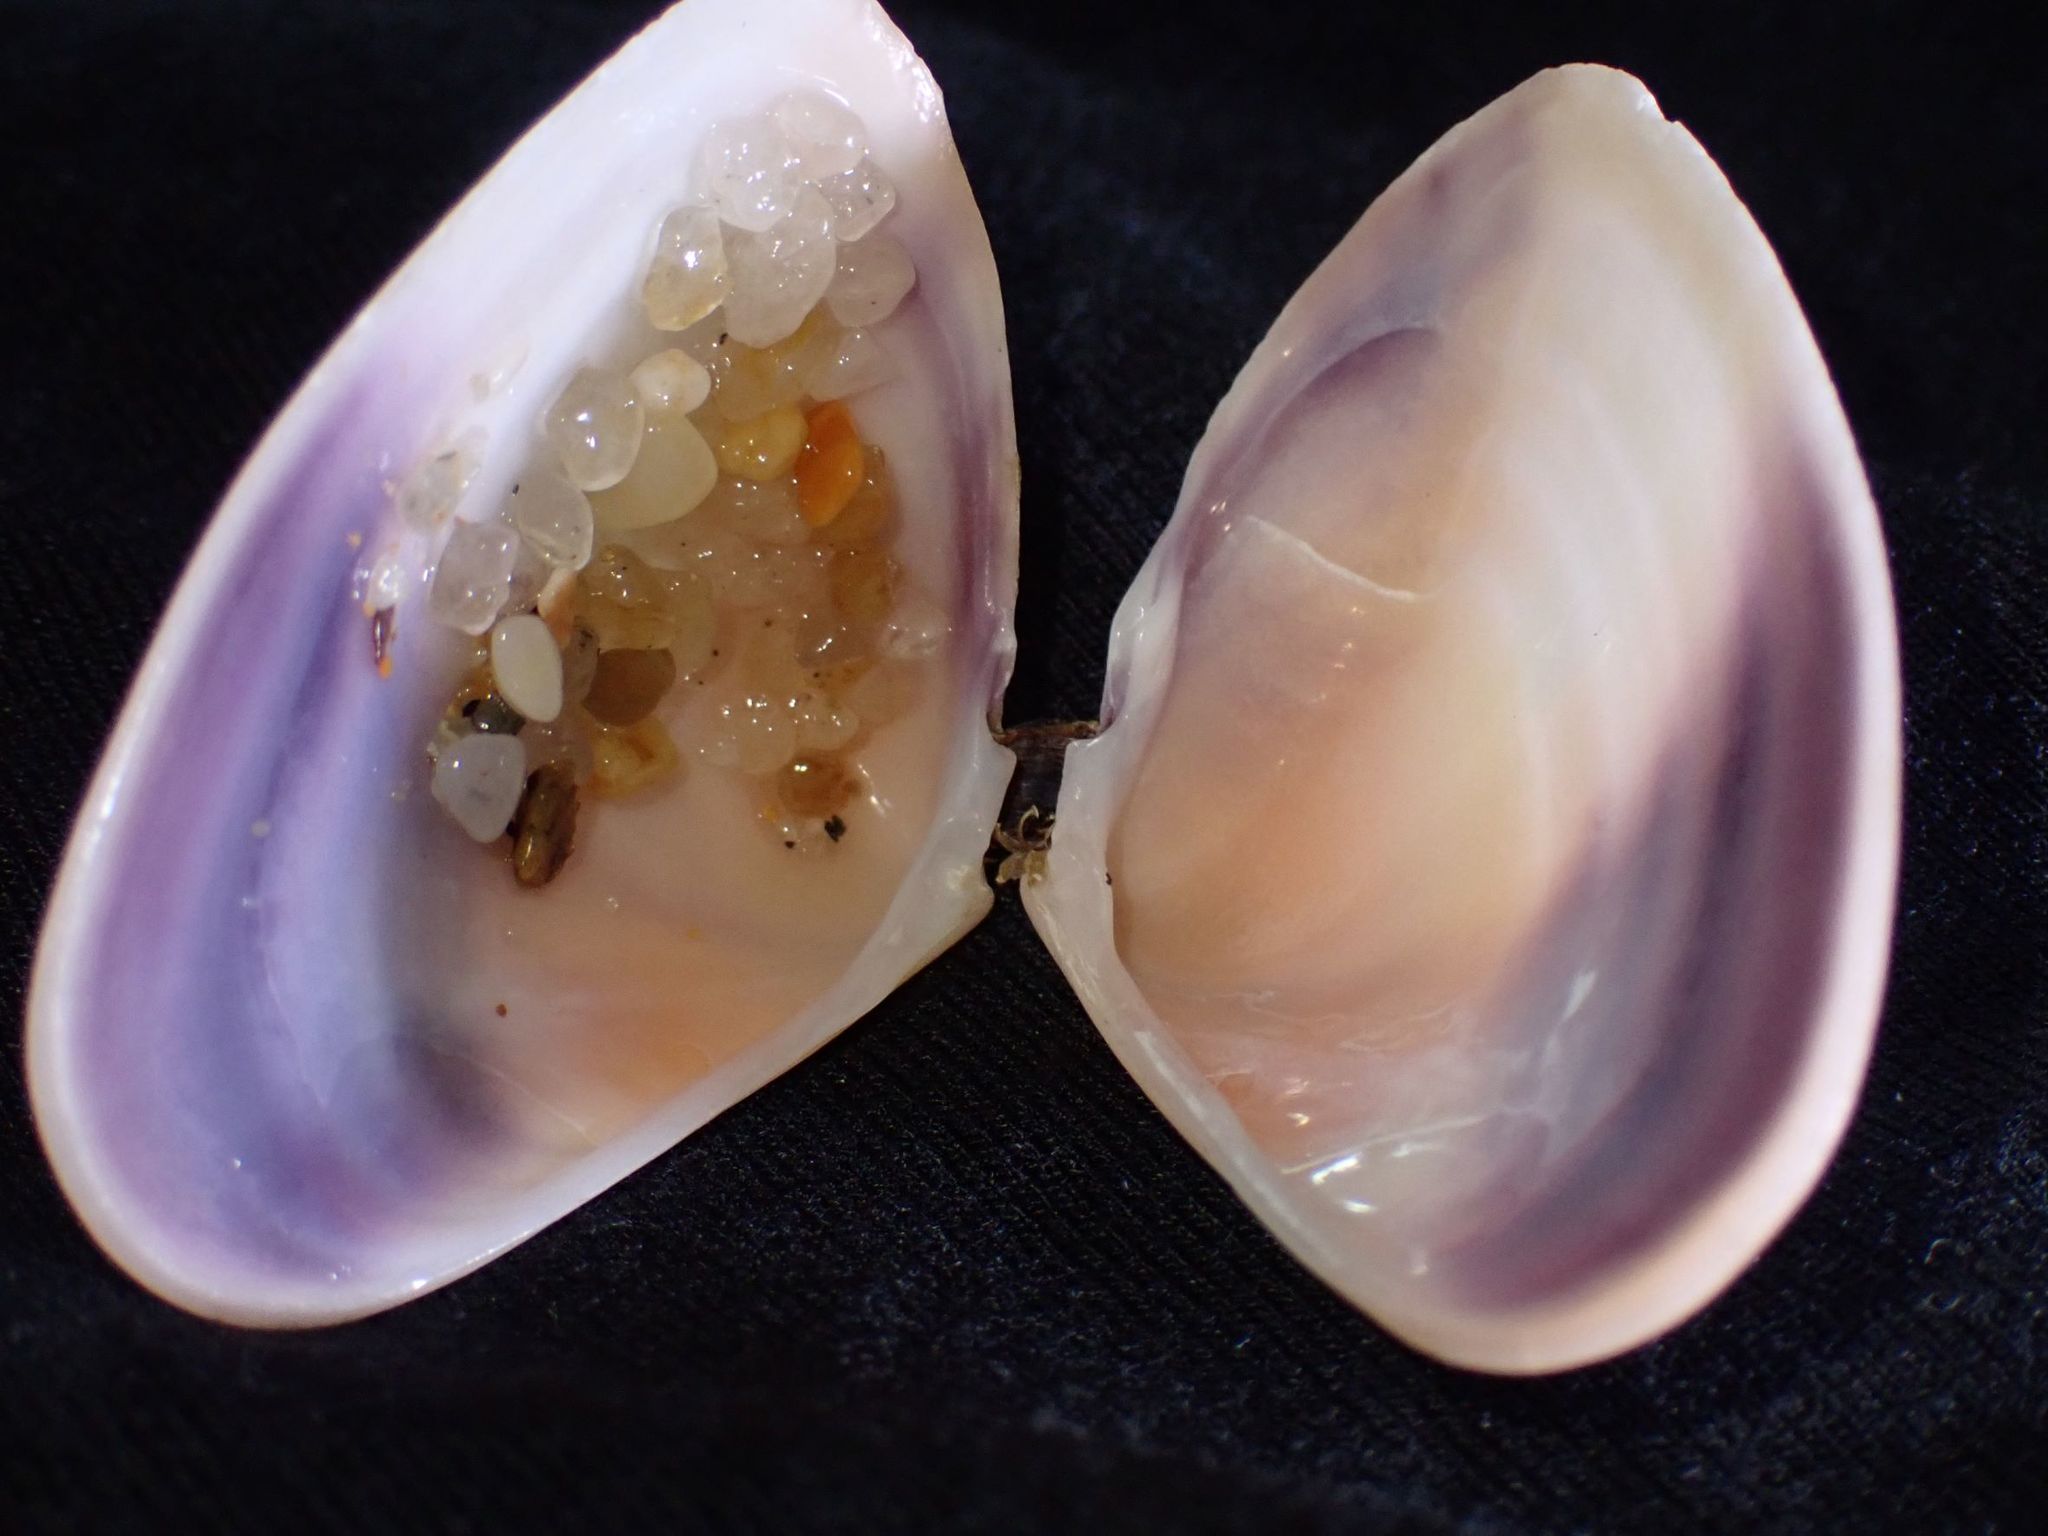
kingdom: Animalia
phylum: Mollusca
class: Bivalvia
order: Cardiida
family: Donacidae
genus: Latona
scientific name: Latona deltoides
